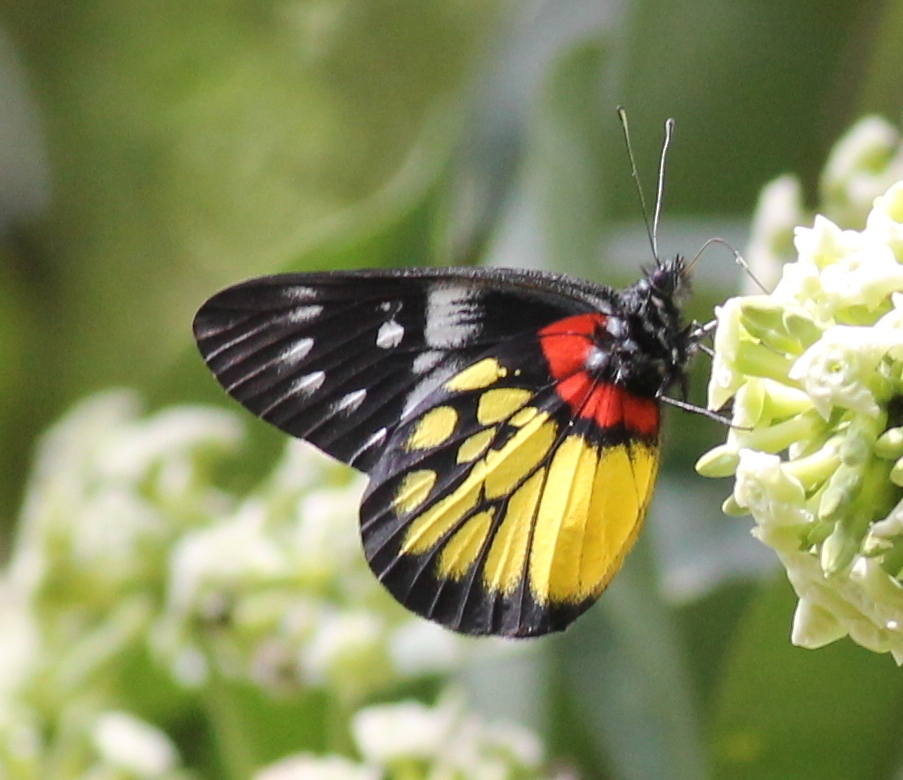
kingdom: Animalia
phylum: Arthropoda
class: Insecta
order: Lepidoptera
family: Pieridae
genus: Delias
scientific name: Delias pasithoe
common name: Red-base jezebel
